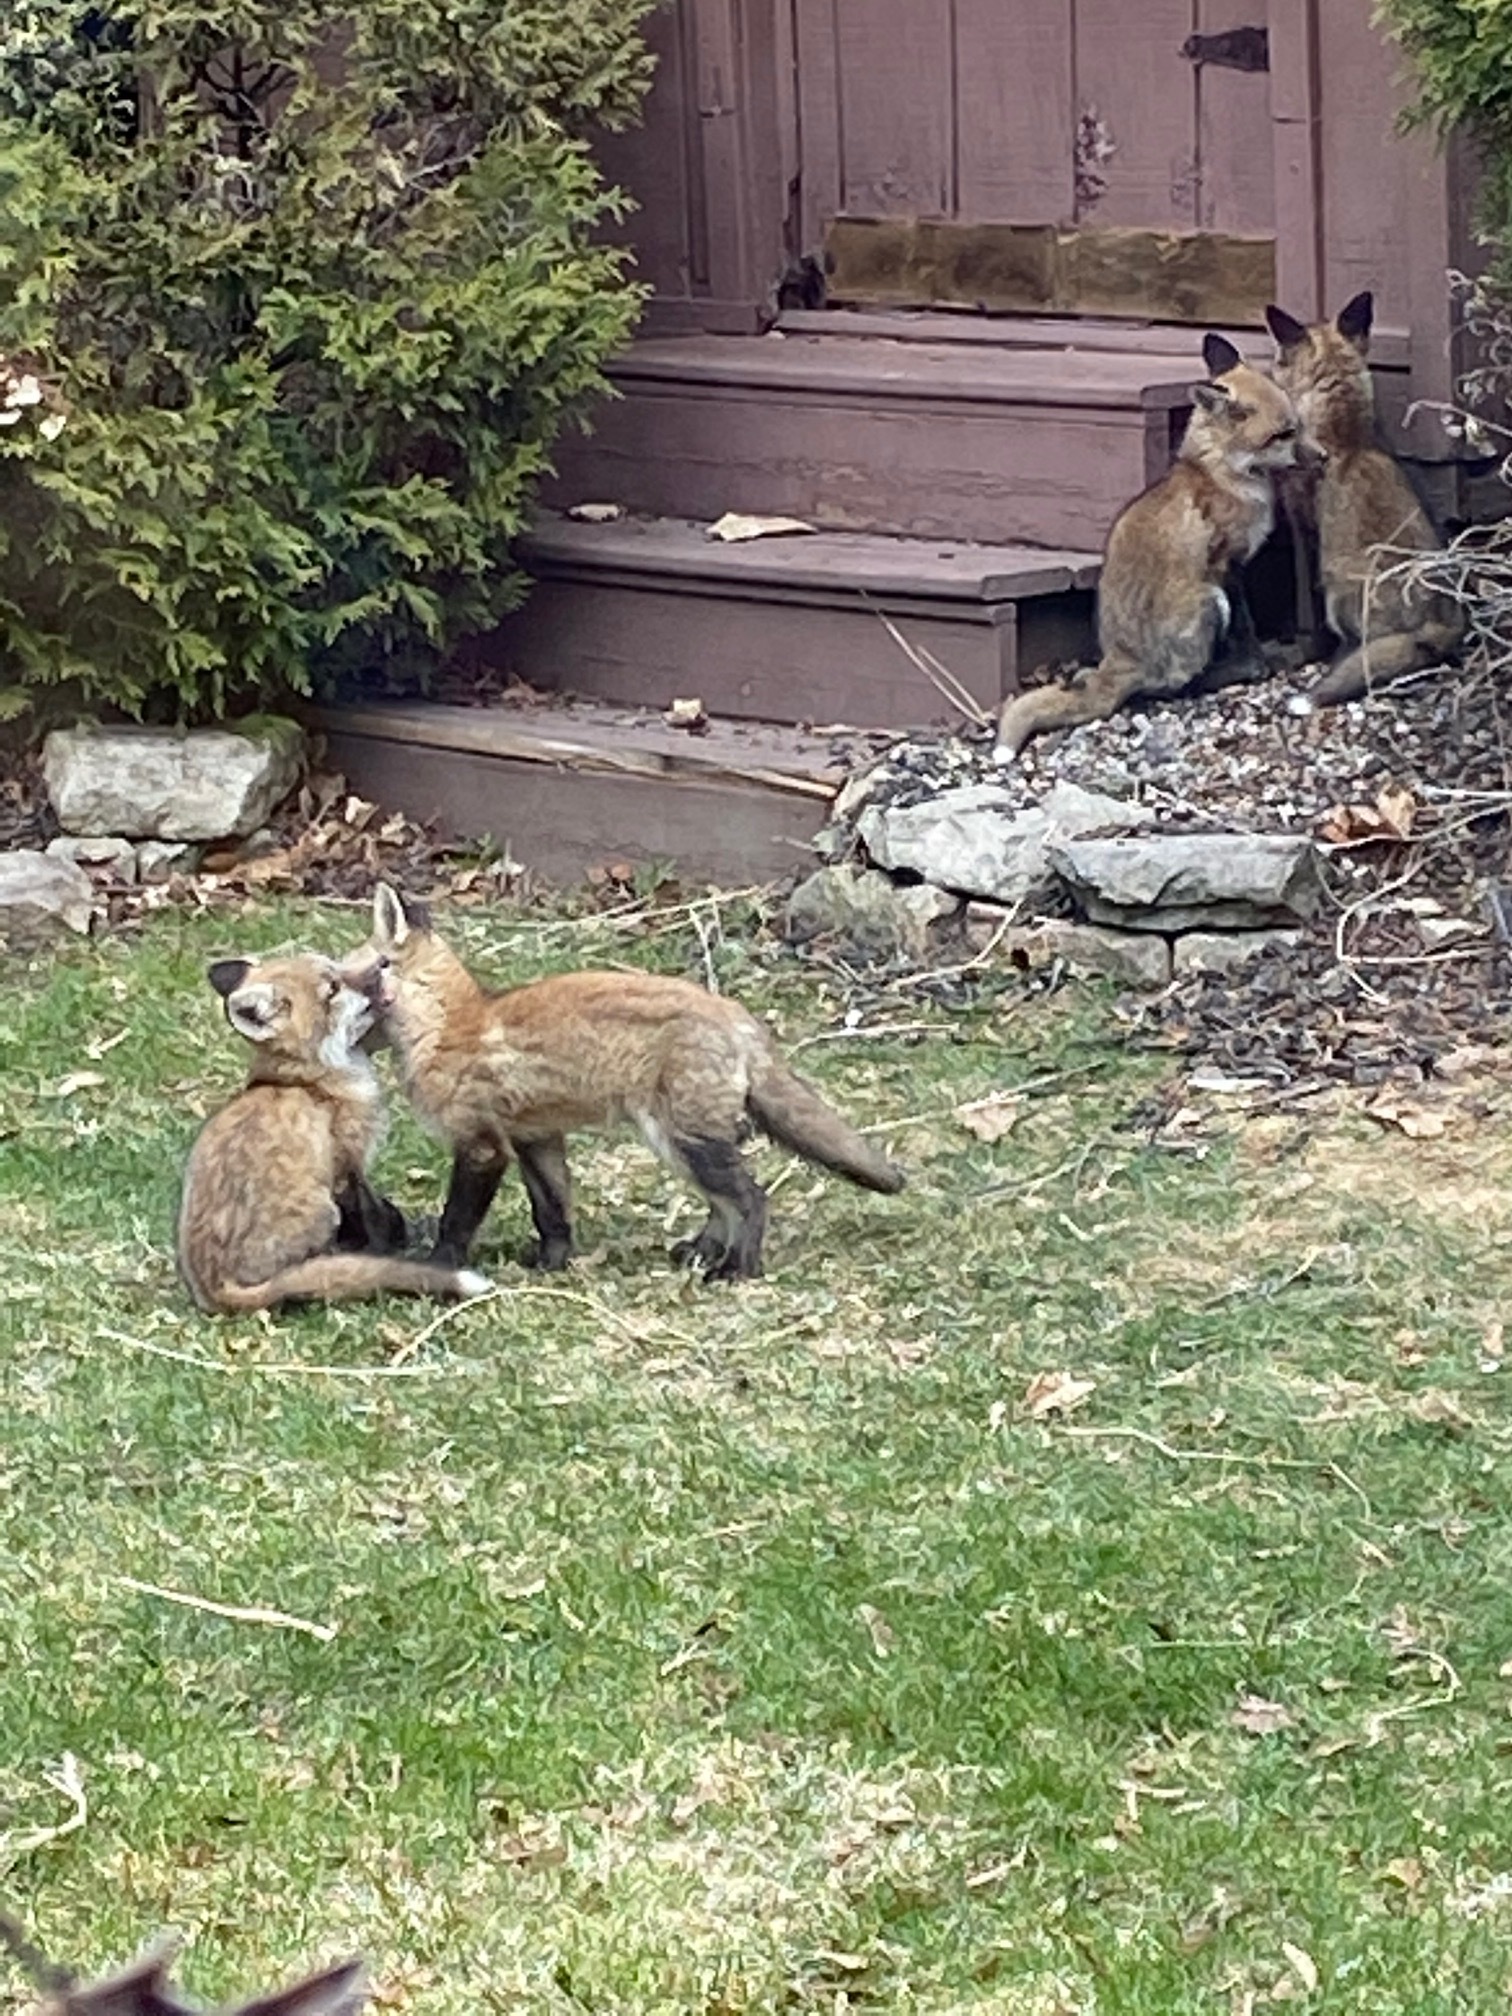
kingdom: Animalia
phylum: Chordata
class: Mammalia
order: Carnivora
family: Canidae
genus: Vulpes
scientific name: Vulpes vulpes
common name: Red fox
